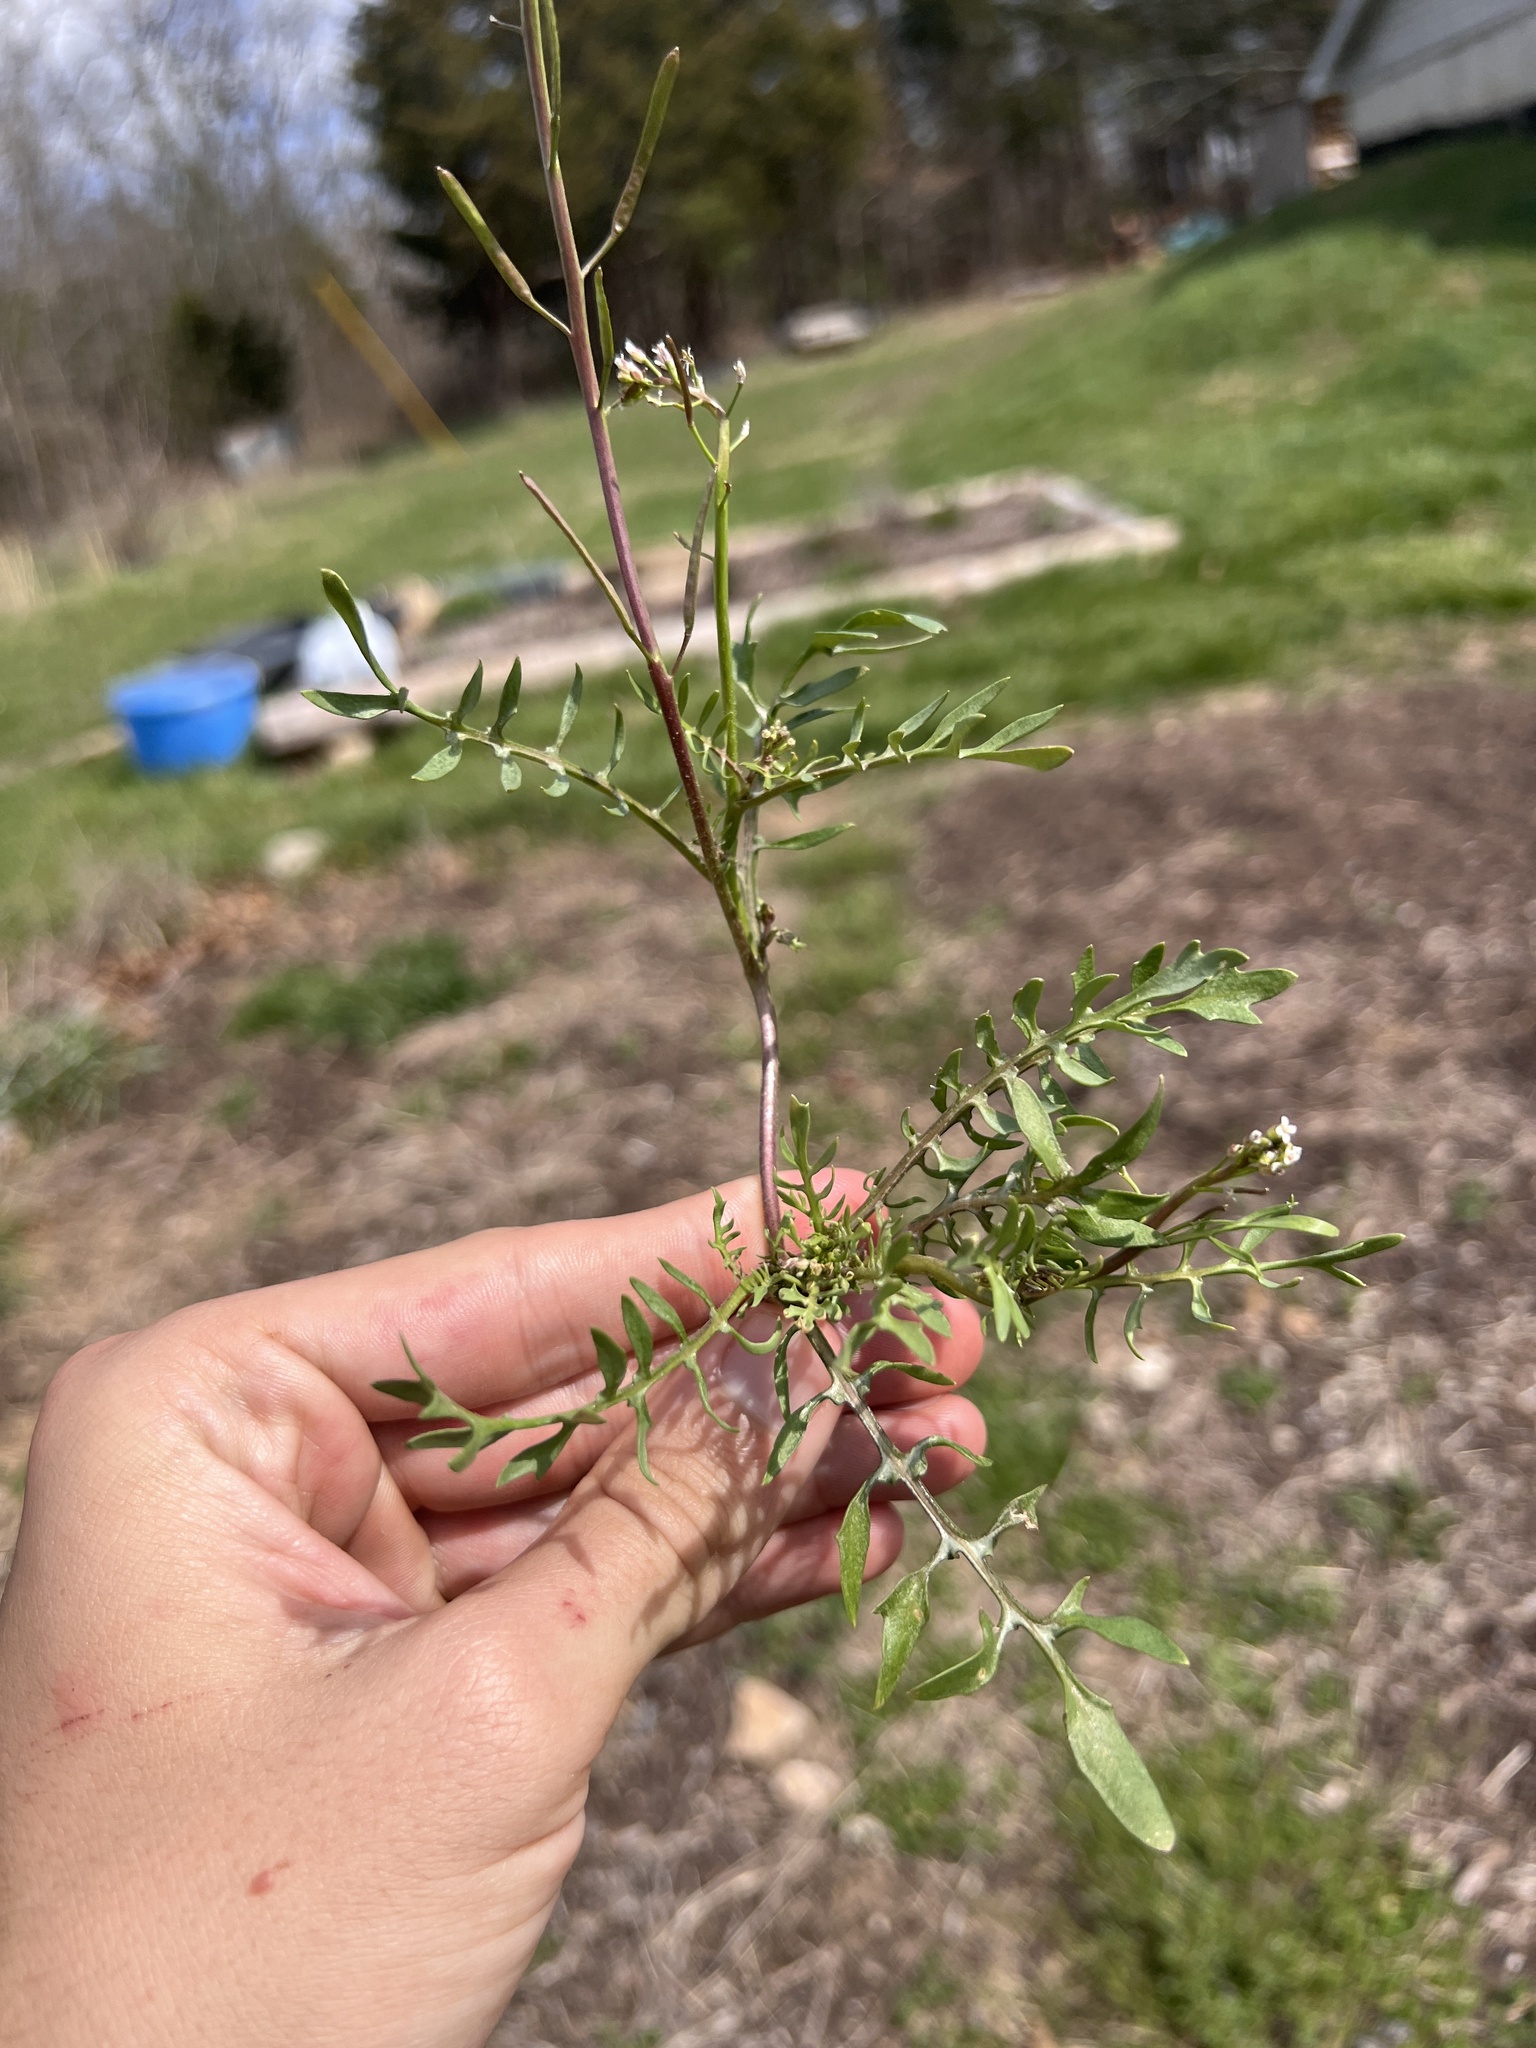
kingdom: Plantae
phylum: Tracheophyta
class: Magnoliopsida
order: Brassicales
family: Brassicaceae
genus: Planodes
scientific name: Planodes virginicum
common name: Virginia cress
